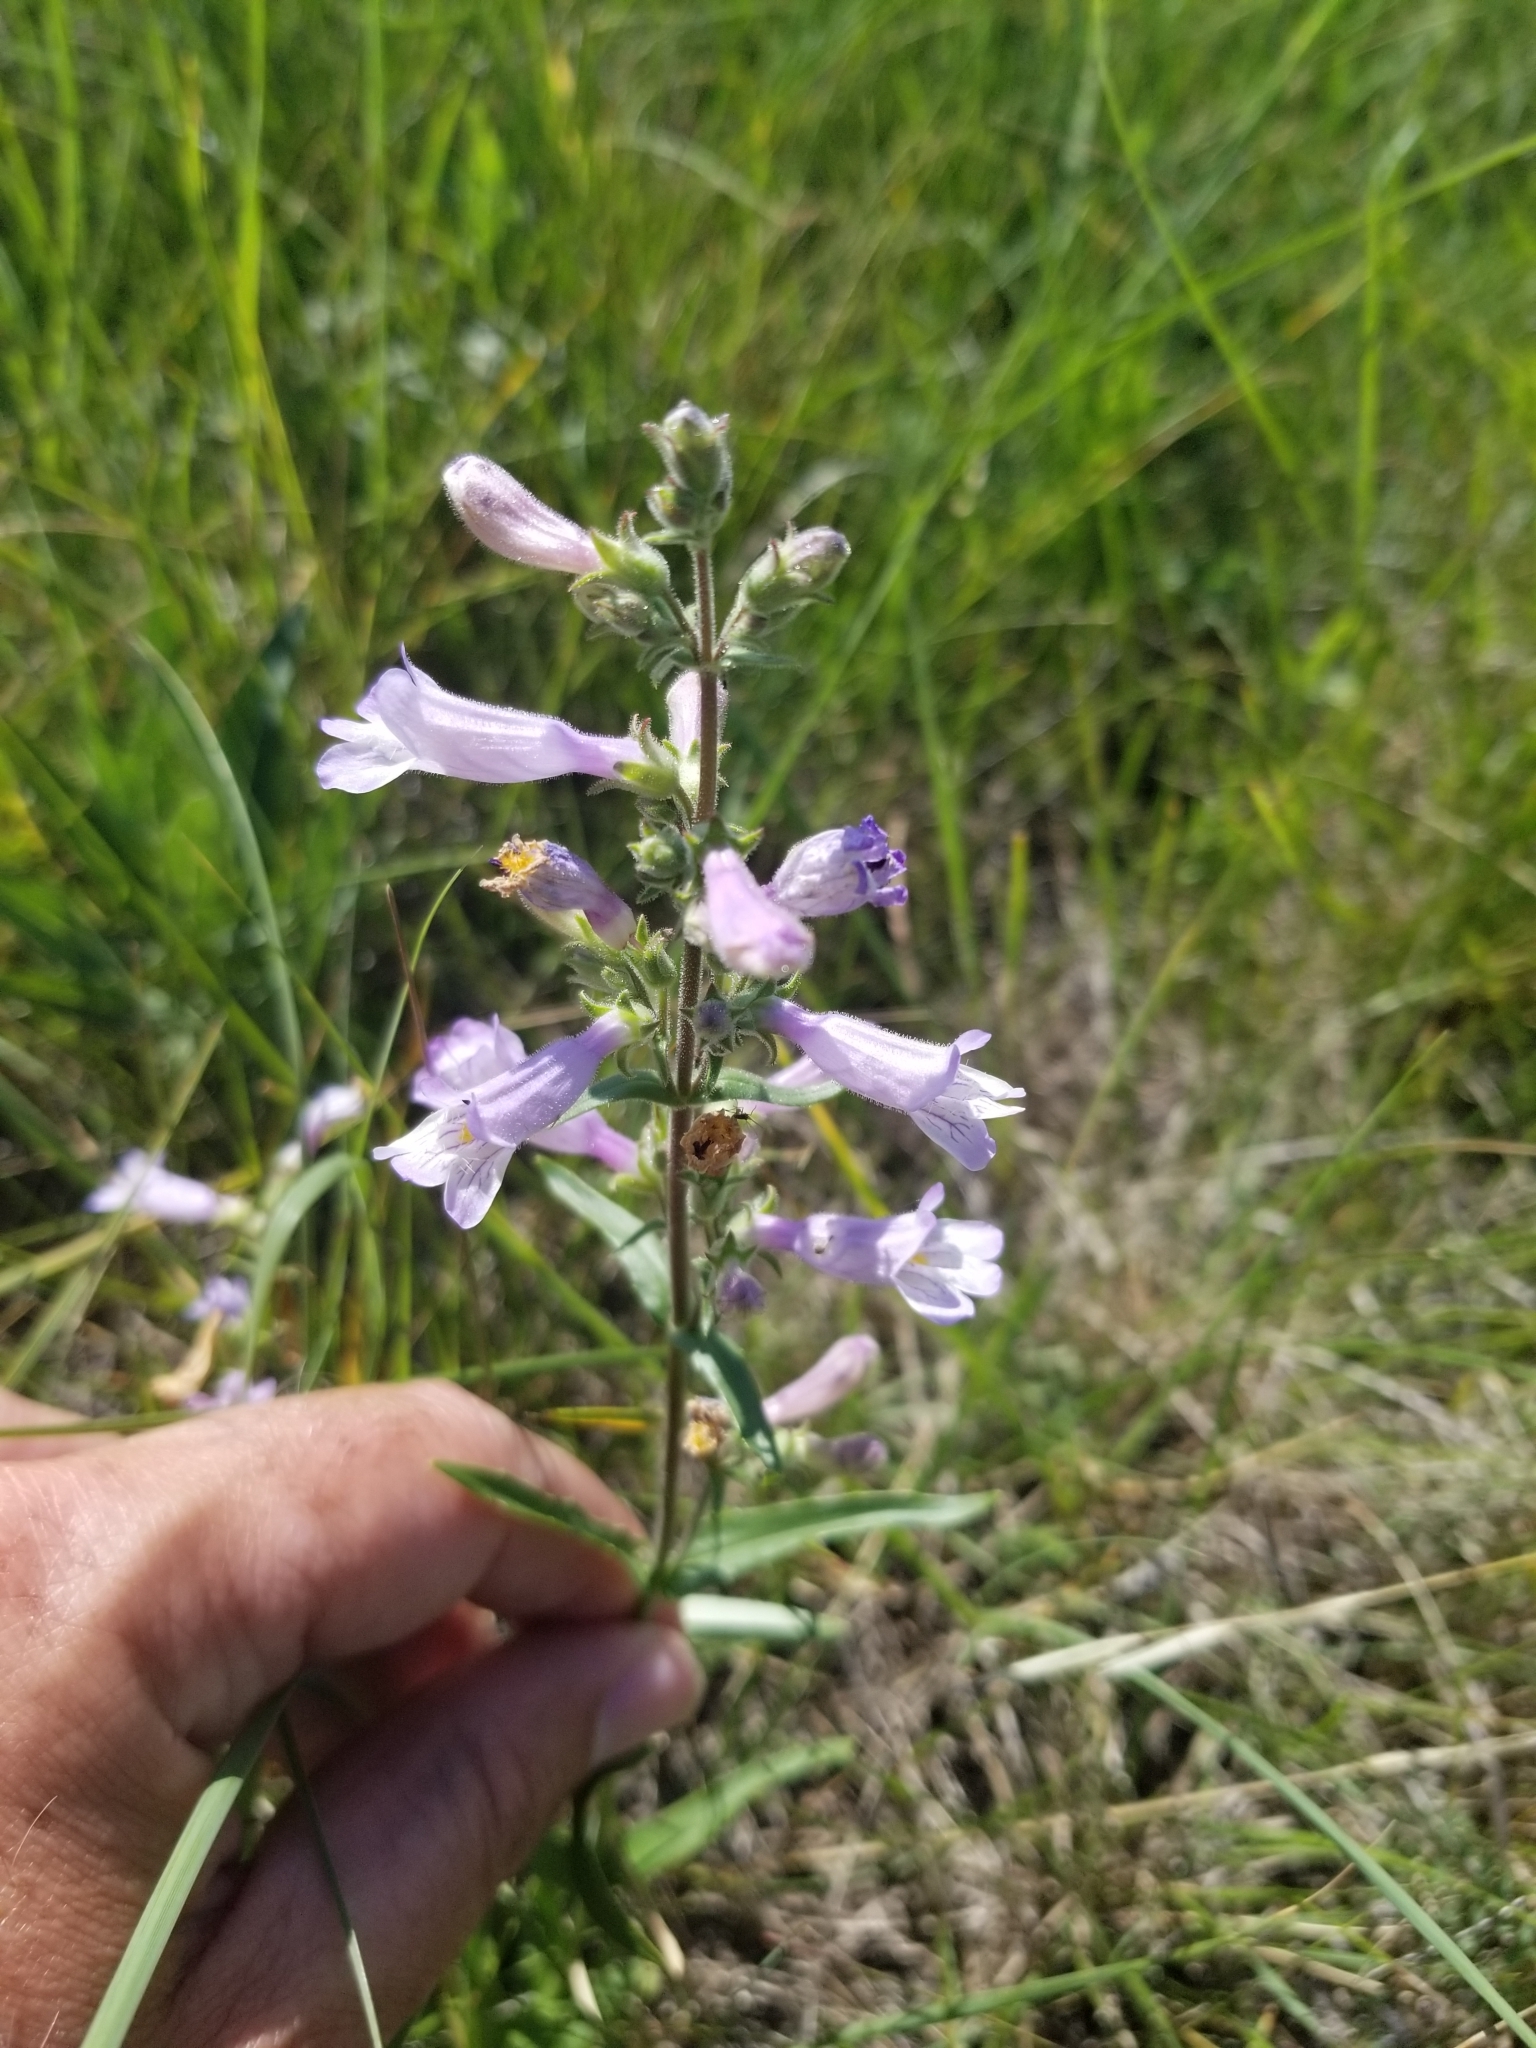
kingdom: Plantae
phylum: Tracheophyta
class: Magnoliopsida
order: Lamiales
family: Plantaginaceae
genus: Penstemon
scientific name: Penstemon gracilis
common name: Slender beardtongue
